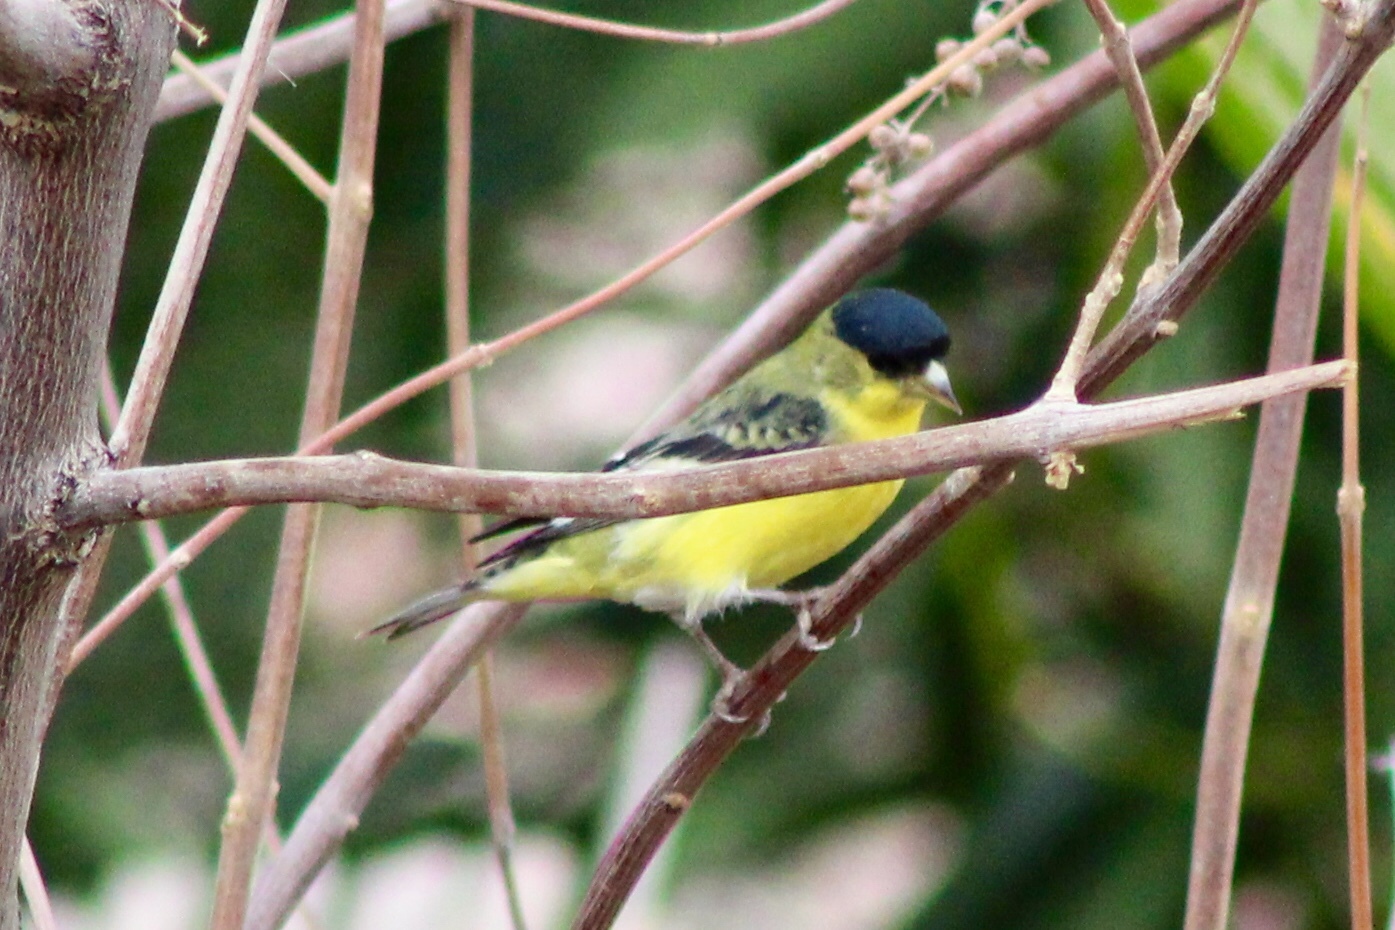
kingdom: Animalia
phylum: Chordata
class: Aves
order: Passeriformes
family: Fringillidae
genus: Spinus
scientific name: Spinus psaltria
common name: Lesser goldfinch
